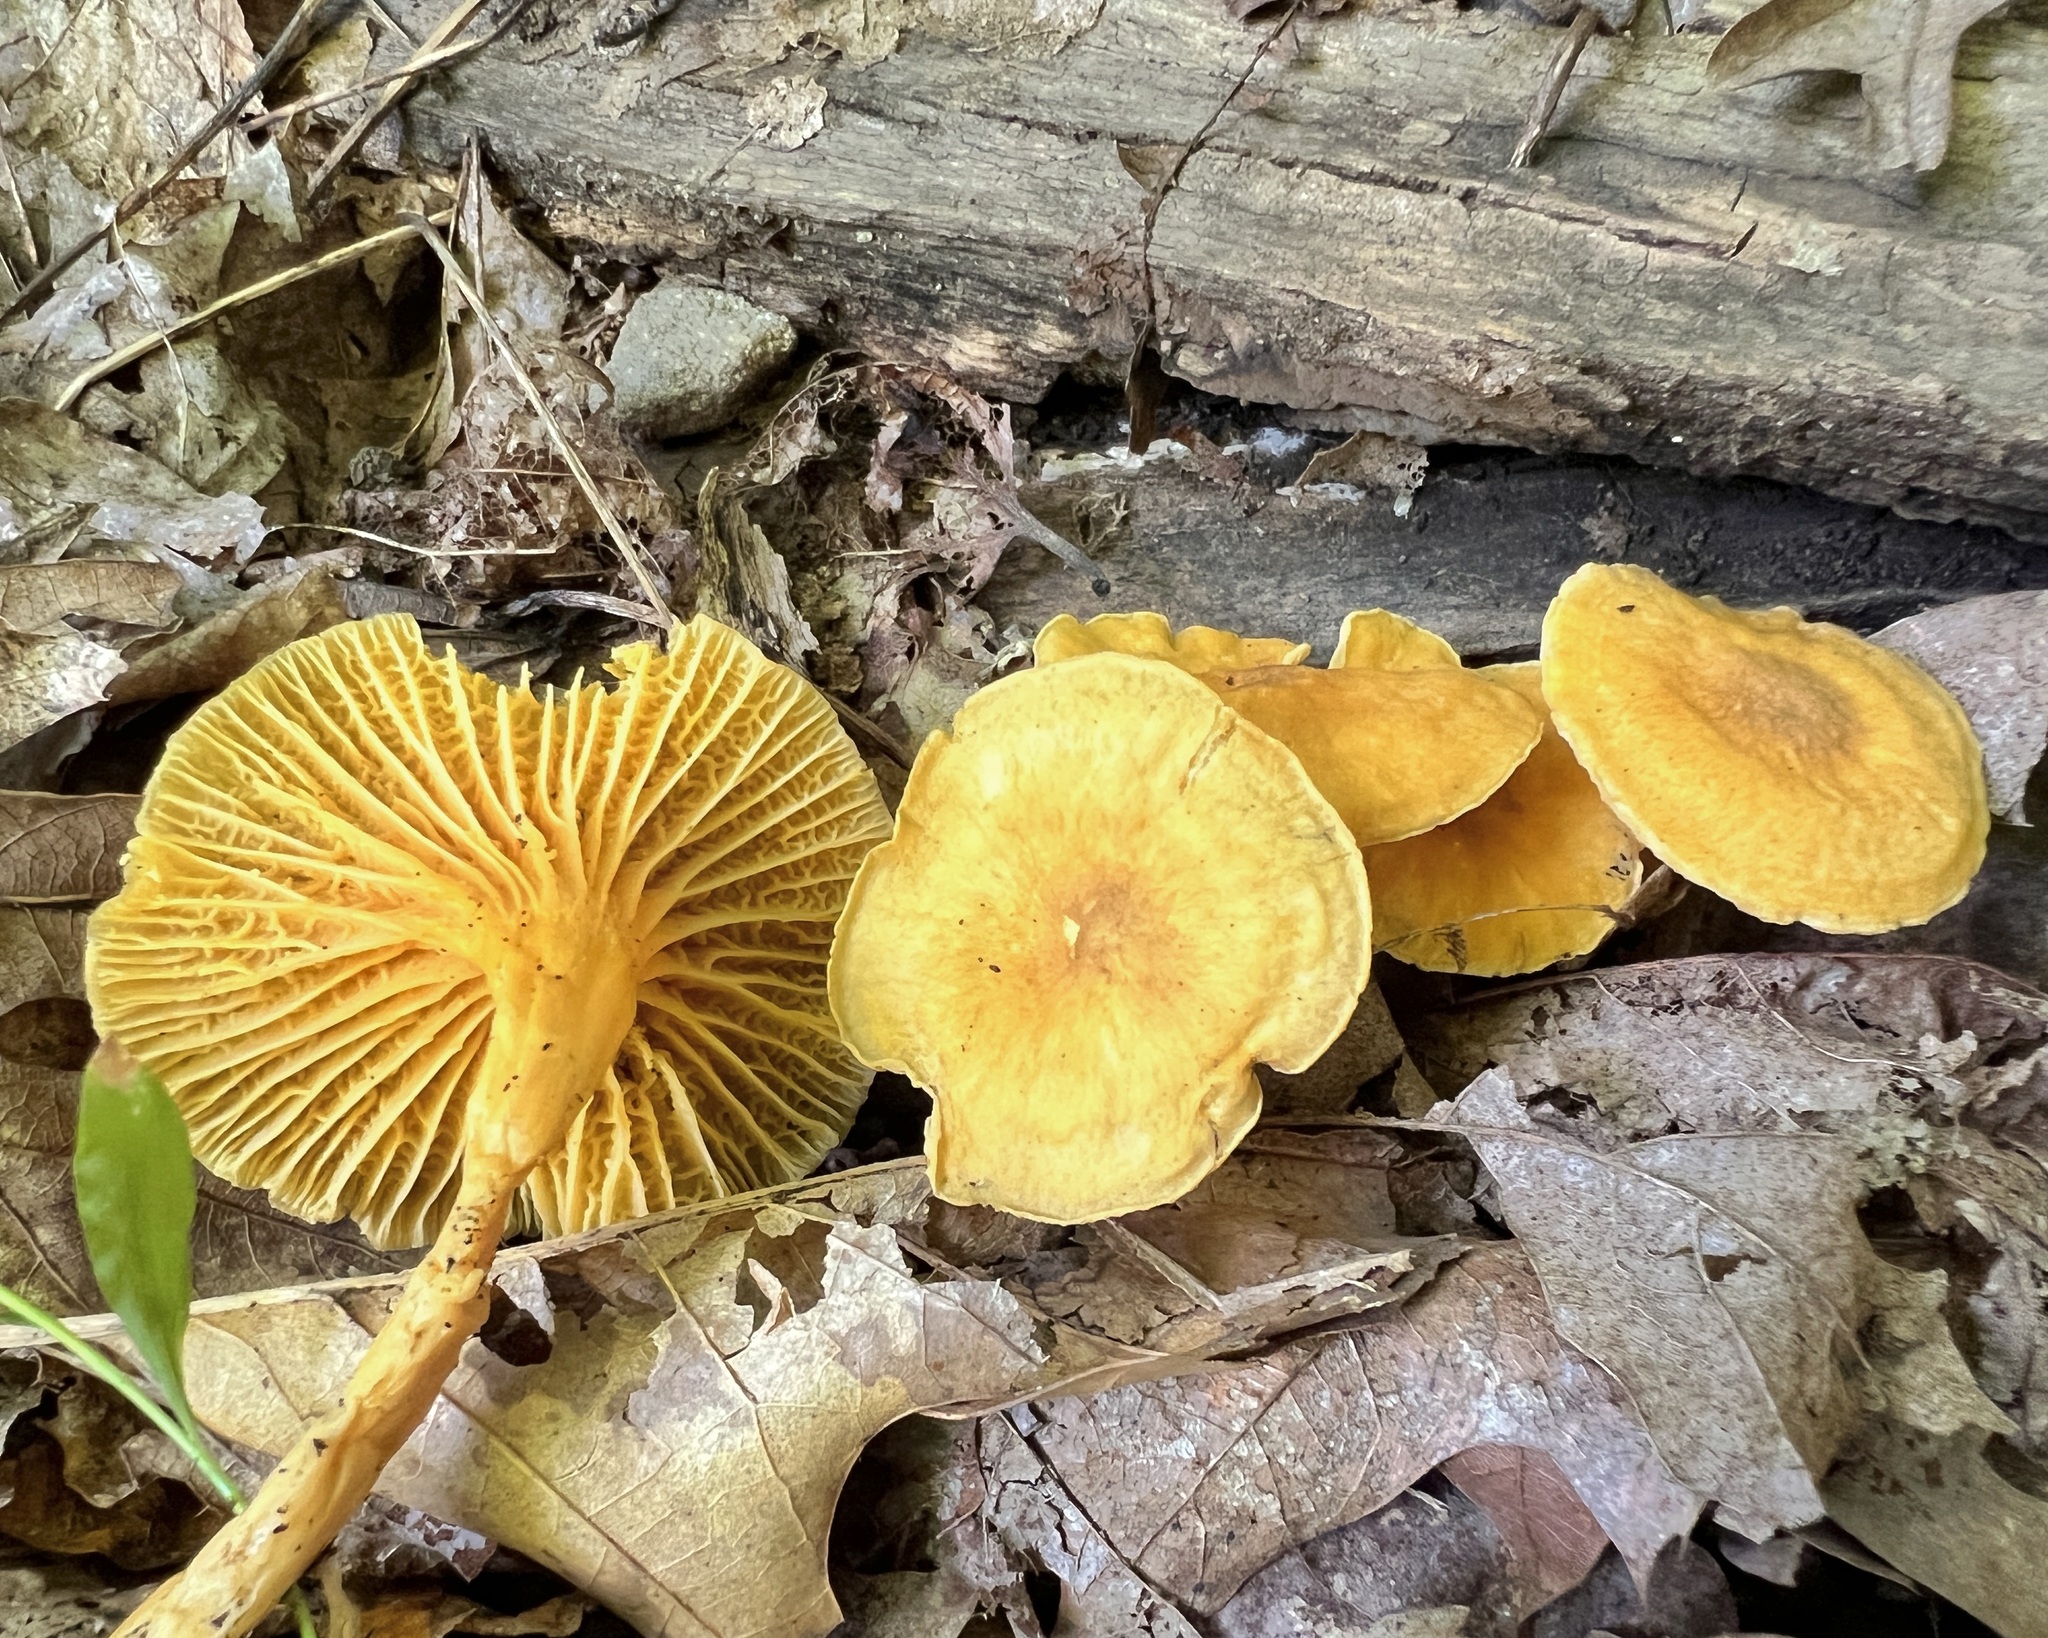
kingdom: Fungi
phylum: Basidiomycota
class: Agaricomycetes
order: Cantharellales
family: Hydnaceae
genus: Cantharellus
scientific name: Cantharellus appalachiensis
